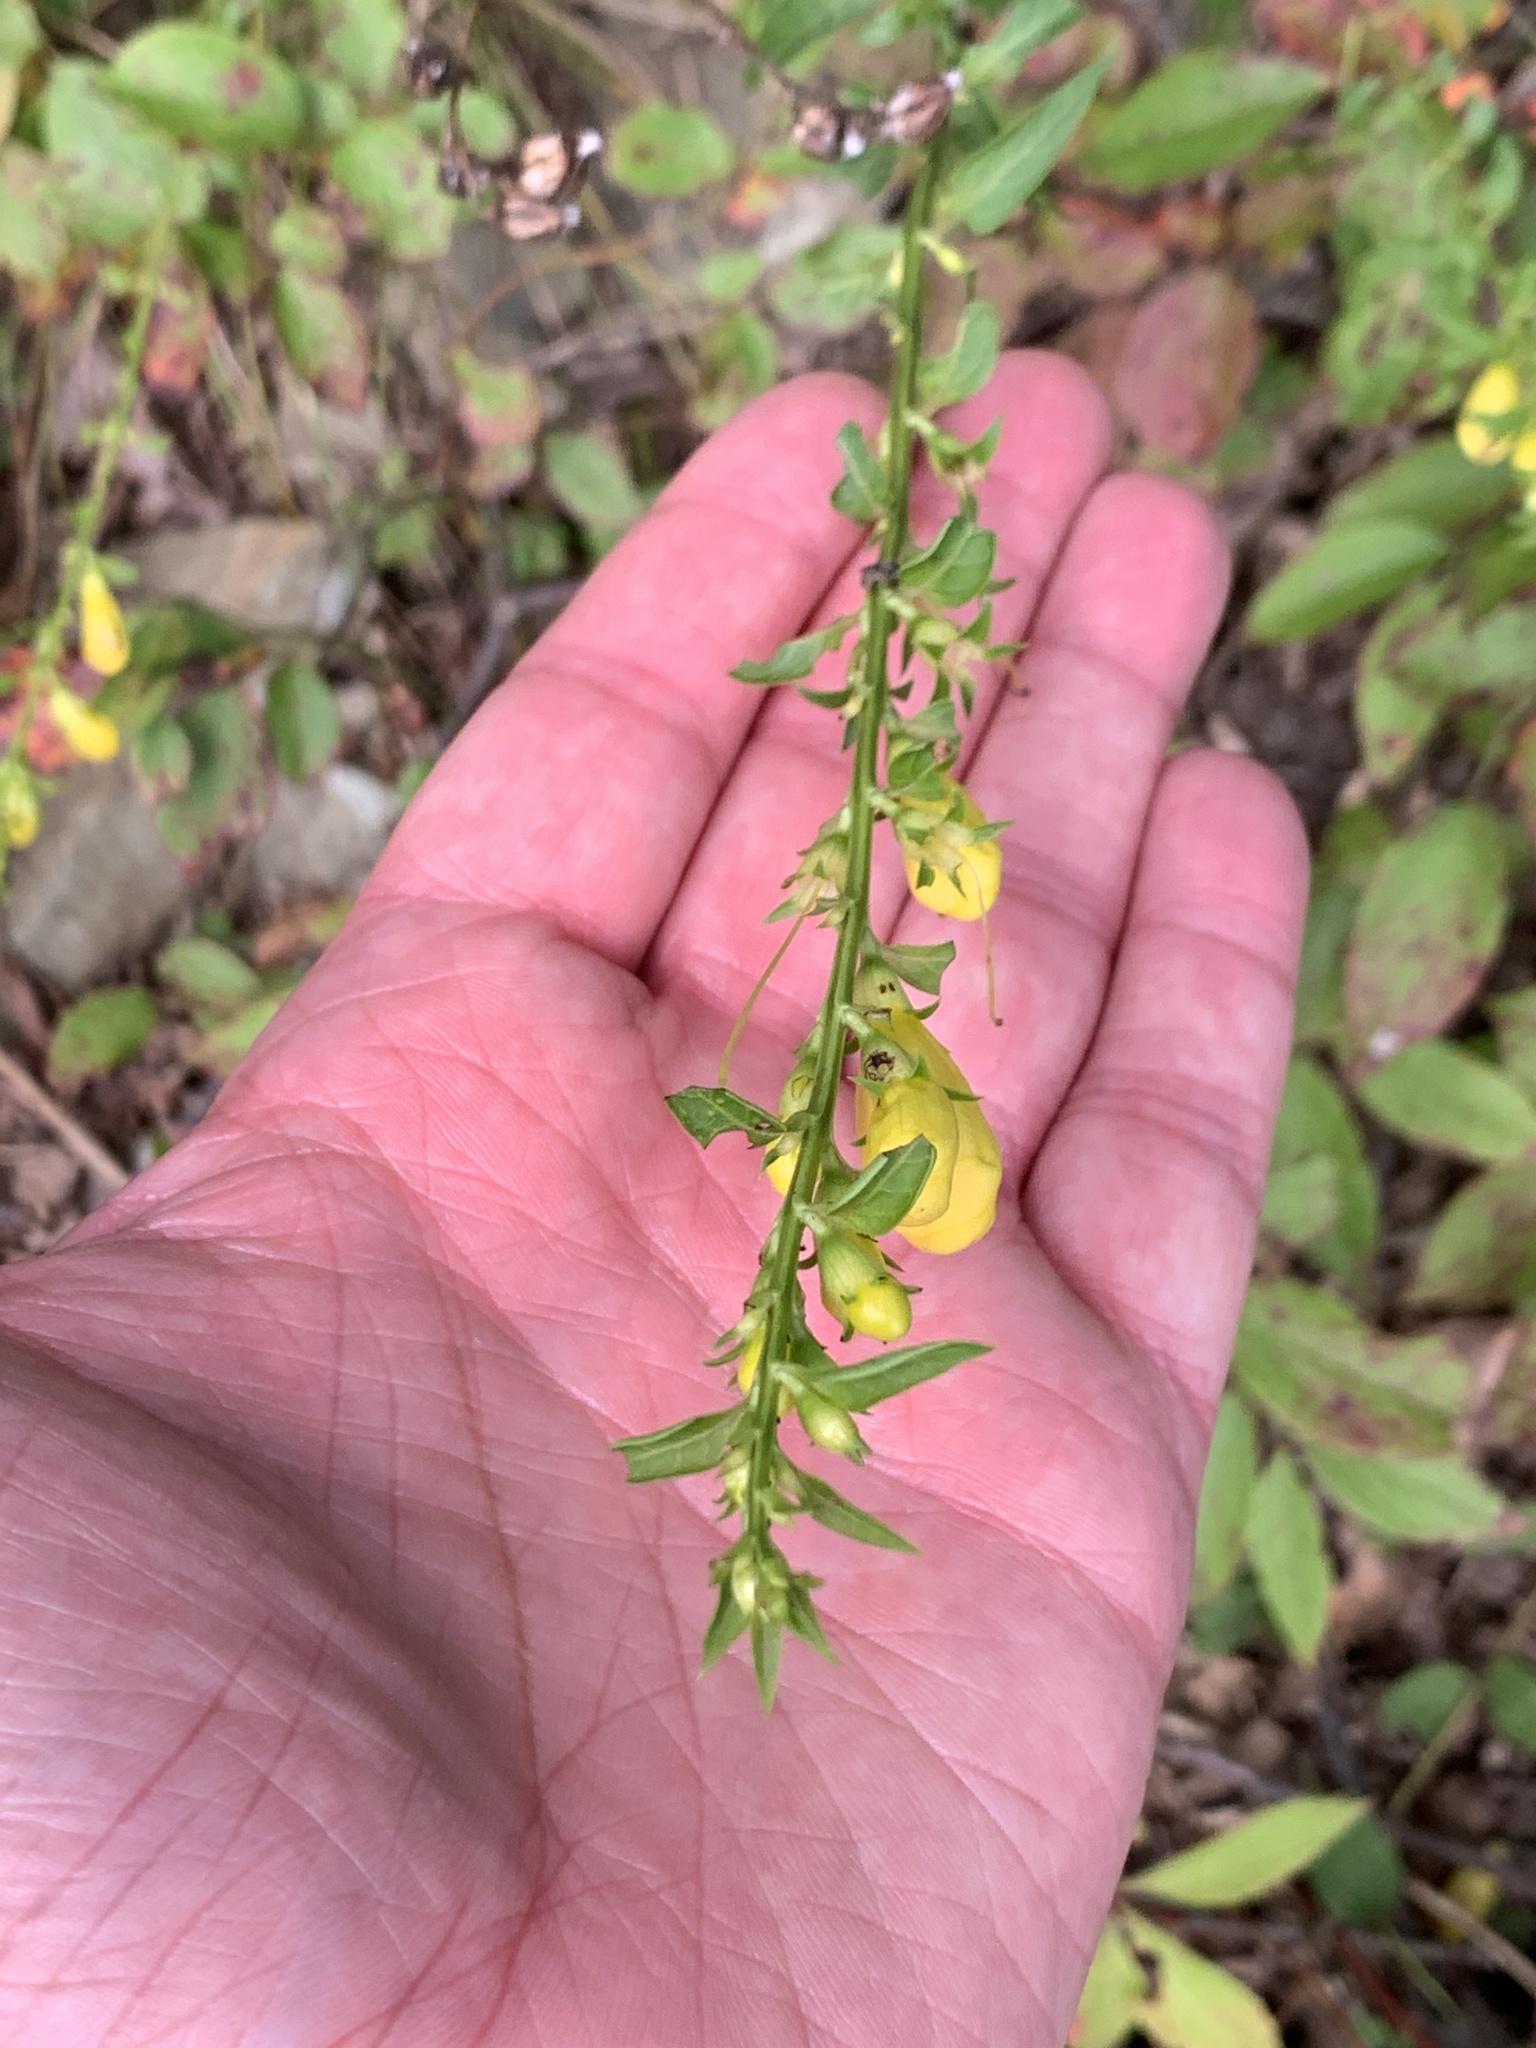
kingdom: Plantae
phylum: Tracheophyta
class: Magnoliopsida
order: Lamiales
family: Orobanchaceae
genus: Aureolaria
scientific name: Aureolaria levigata
